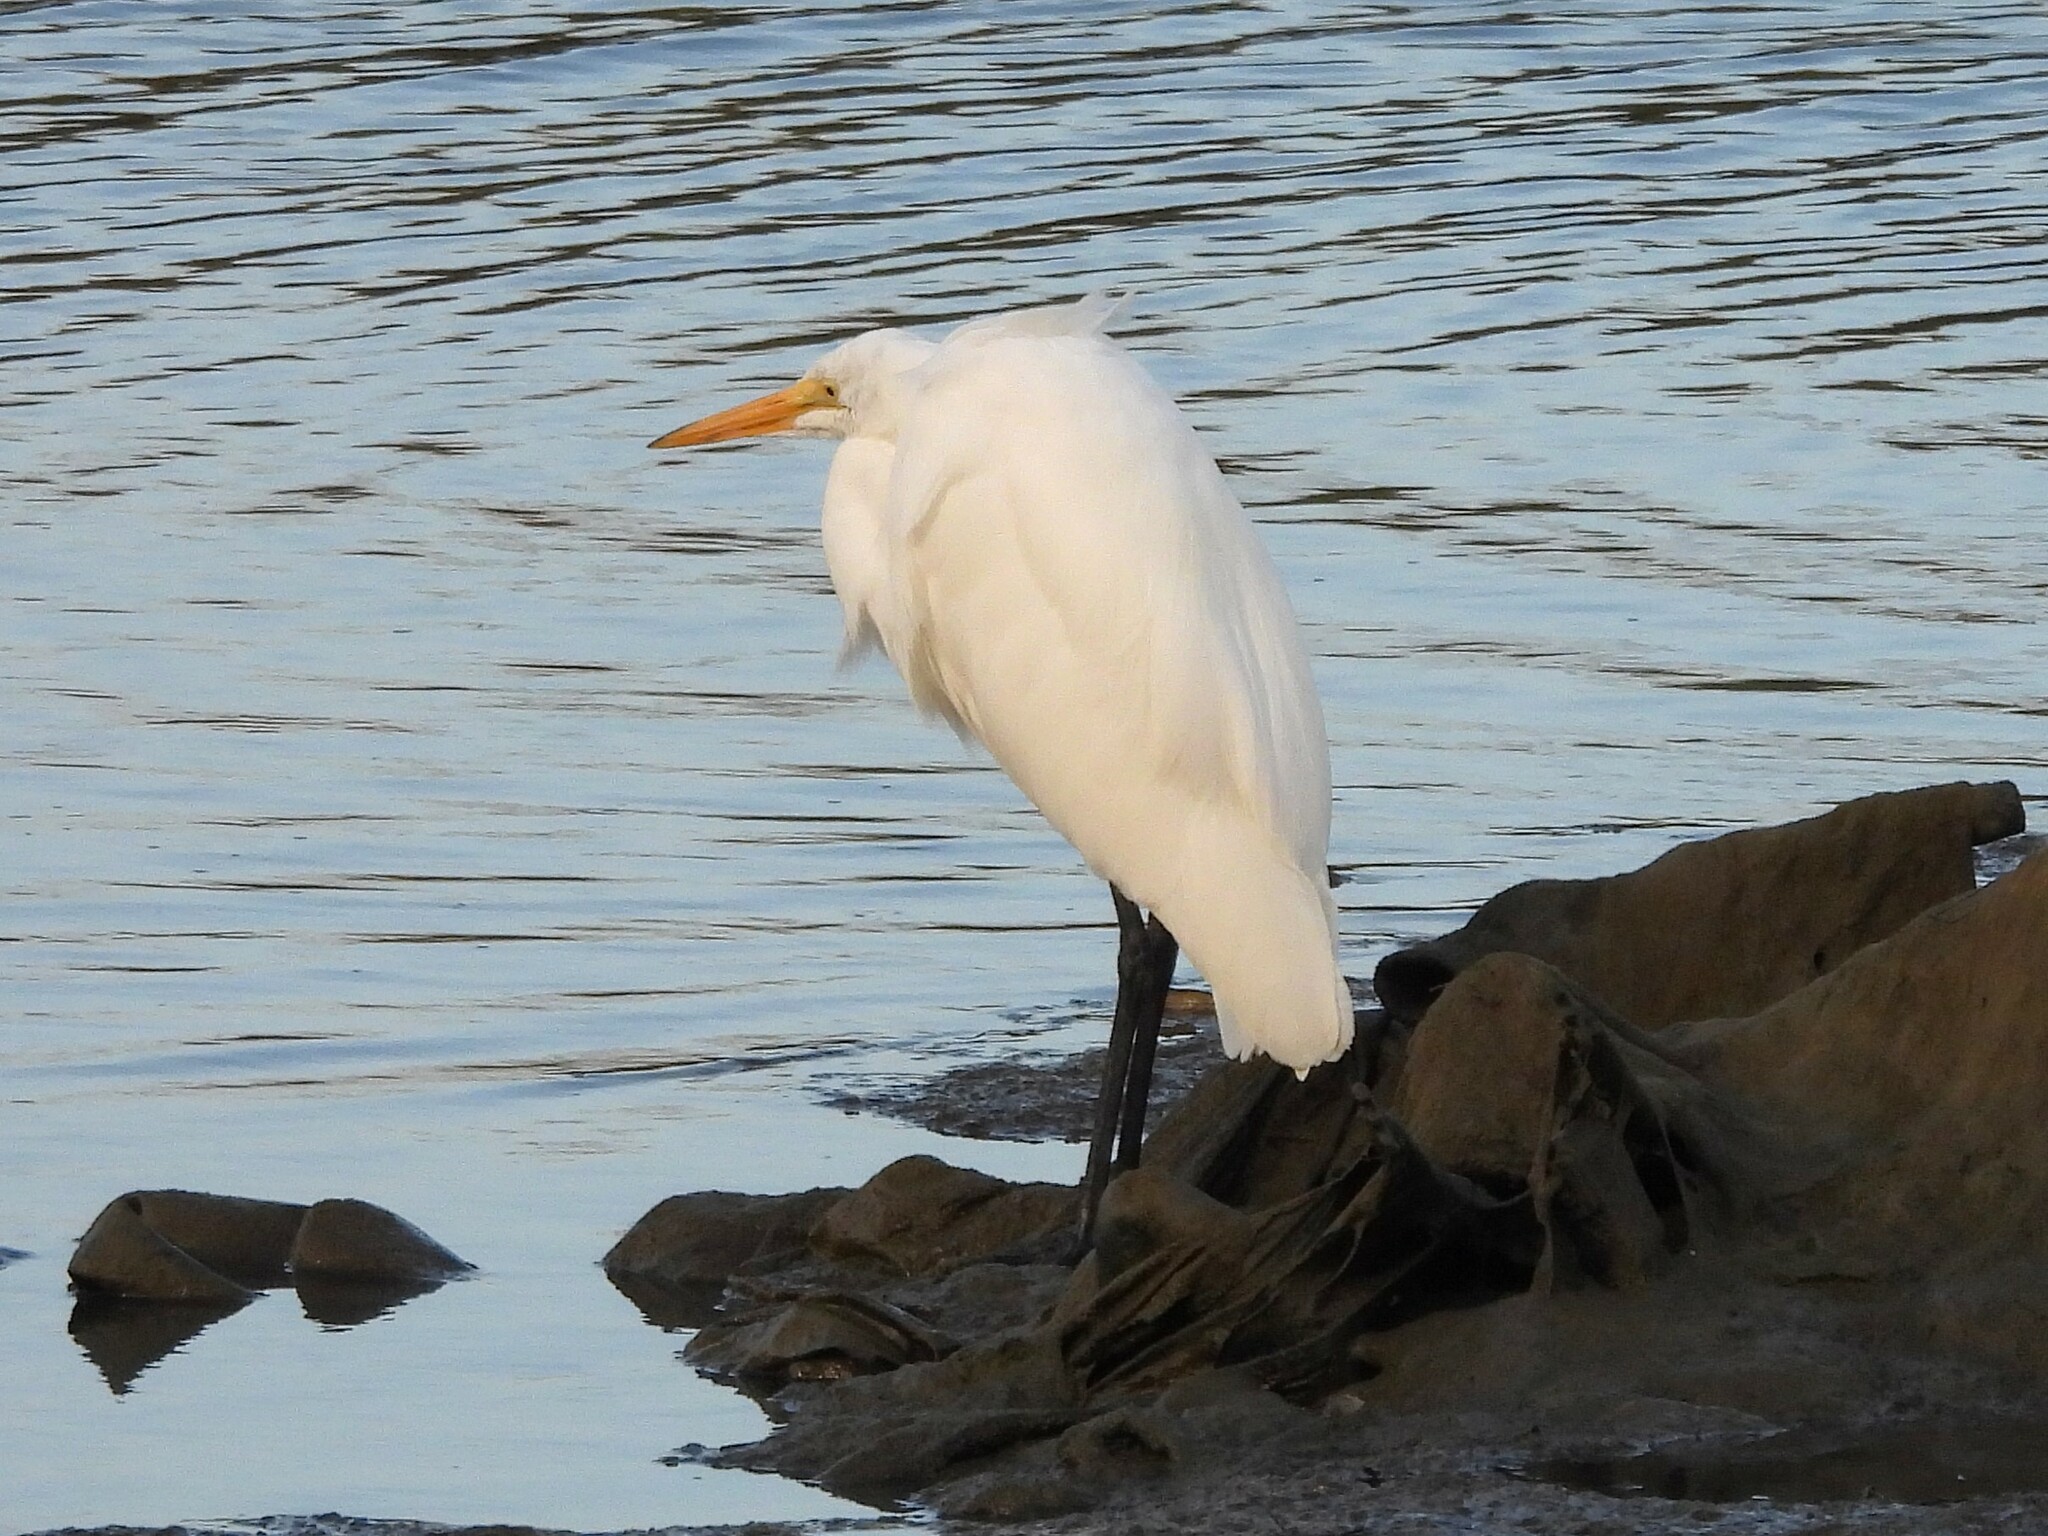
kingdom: Animalia
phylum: Chordata
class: Aves
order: Pelecaniformes
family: Ardeidae
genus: Ardea
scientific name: Ardea alba
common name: Great egret
